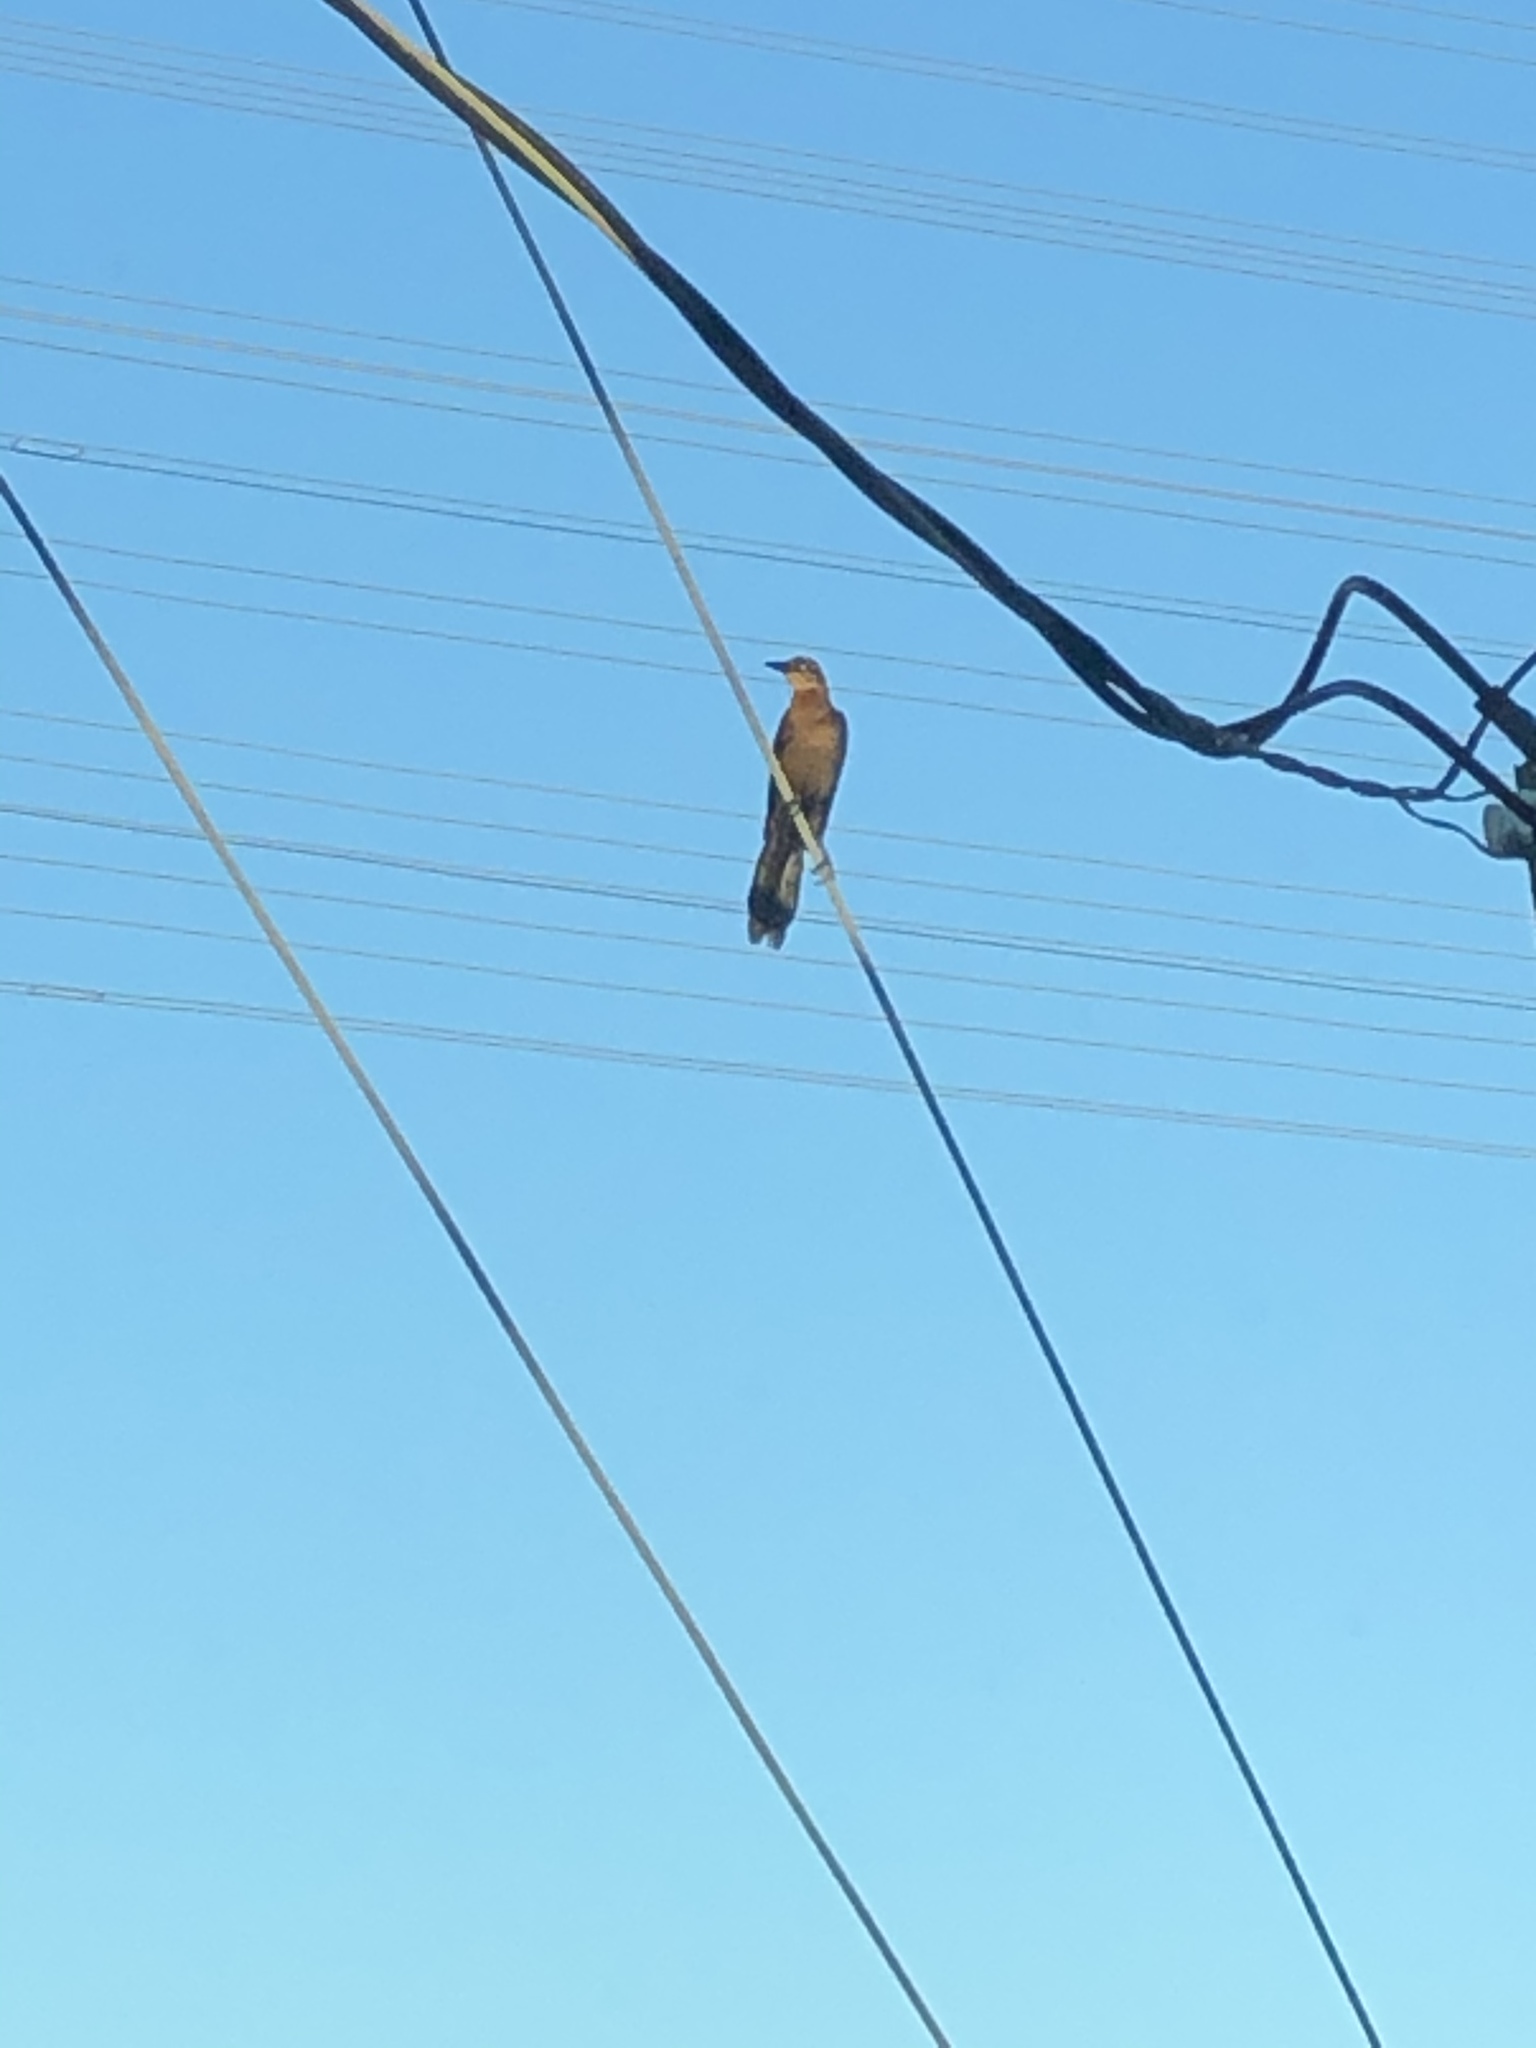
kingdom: Animalia
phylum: Chordata
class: Aves
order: Passeriformes
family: Icteridae
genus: Quiscalus
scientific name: Quiscalus mexicanus
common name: Great-tailed grackle
